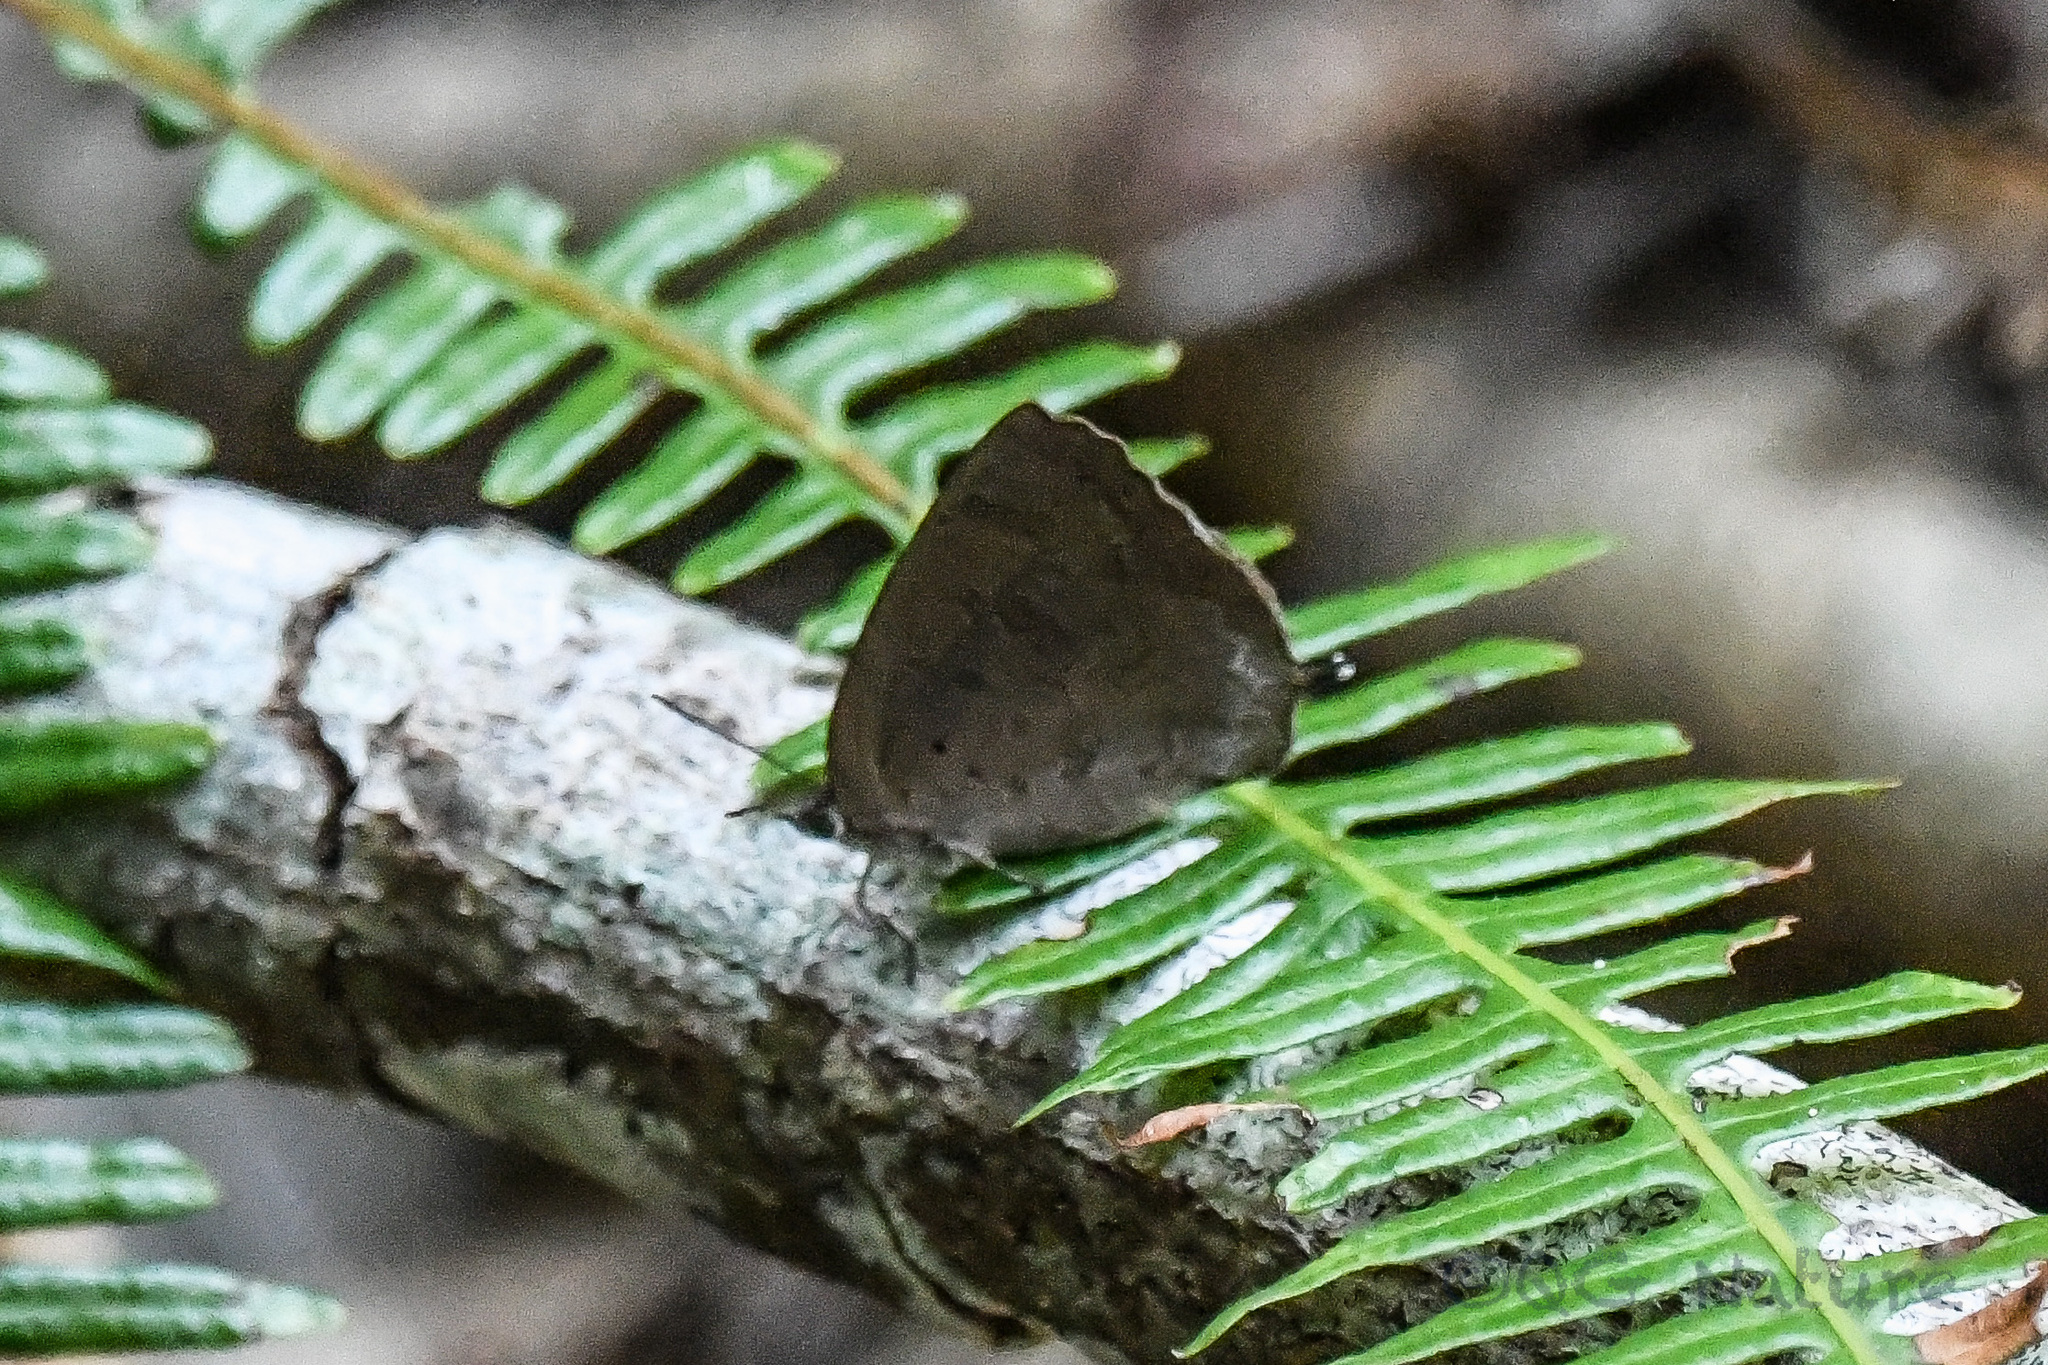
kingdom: Animalia
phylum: Arthropoda
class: Insecta
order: Lepidoptera
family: Lycaenidae
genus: Amblypodia
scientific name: Amblypodia rama
